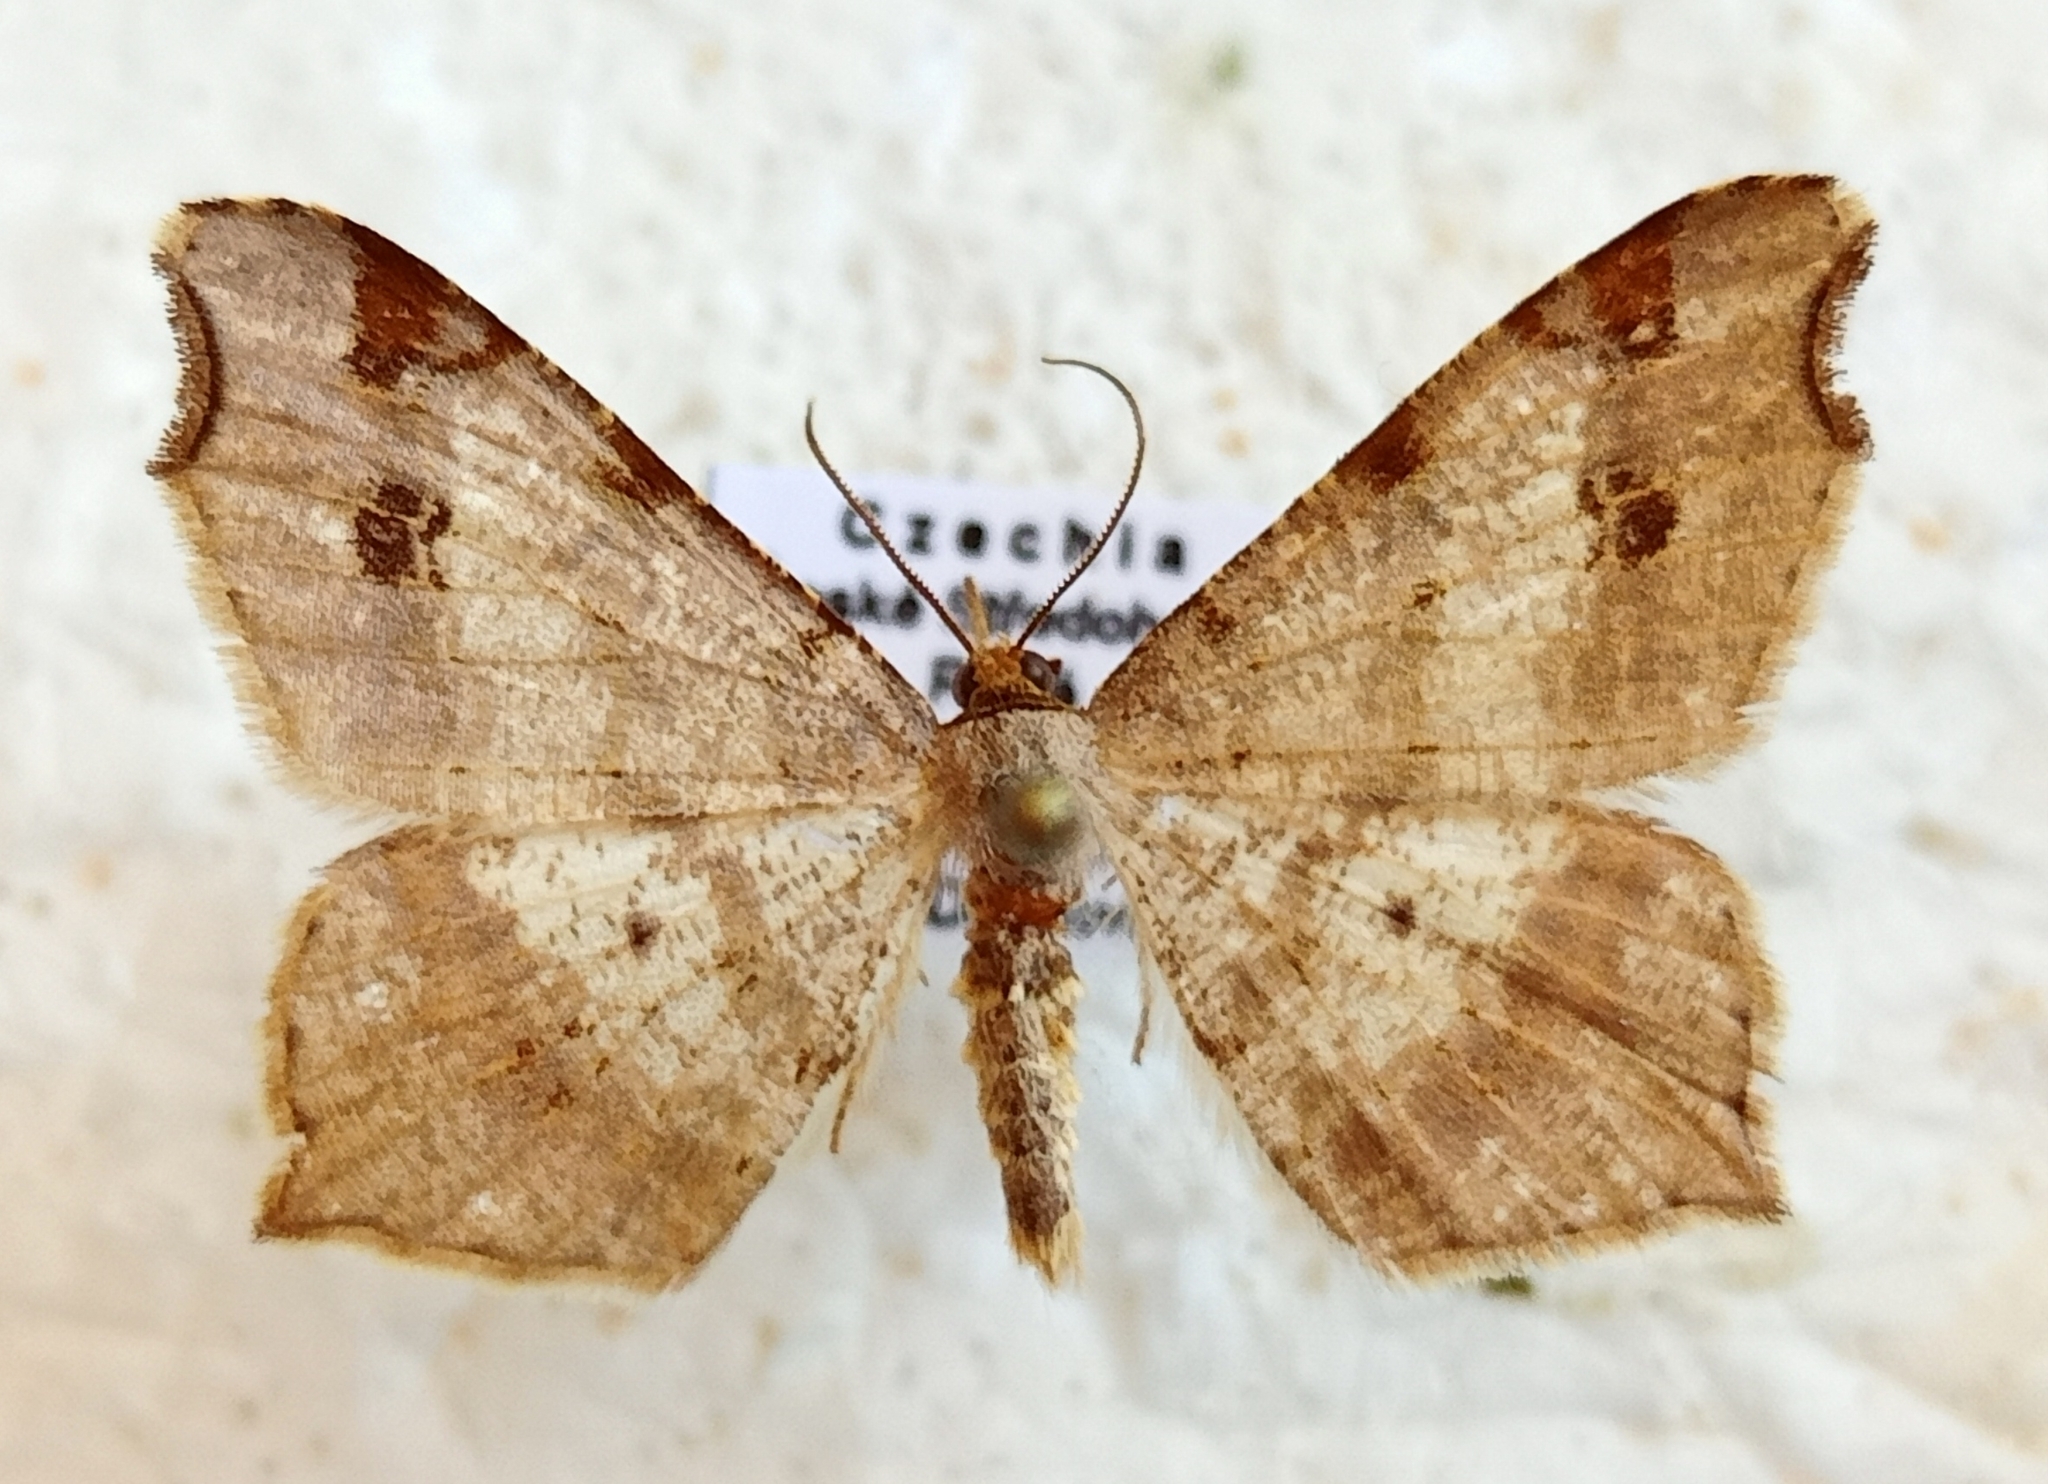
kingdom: Animalia
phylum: Arthropoda
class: Insecta
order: Lepidoptera
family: Geometridae
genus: Macaria
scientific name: Macaria alternata
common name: Sharp-angled peacock
